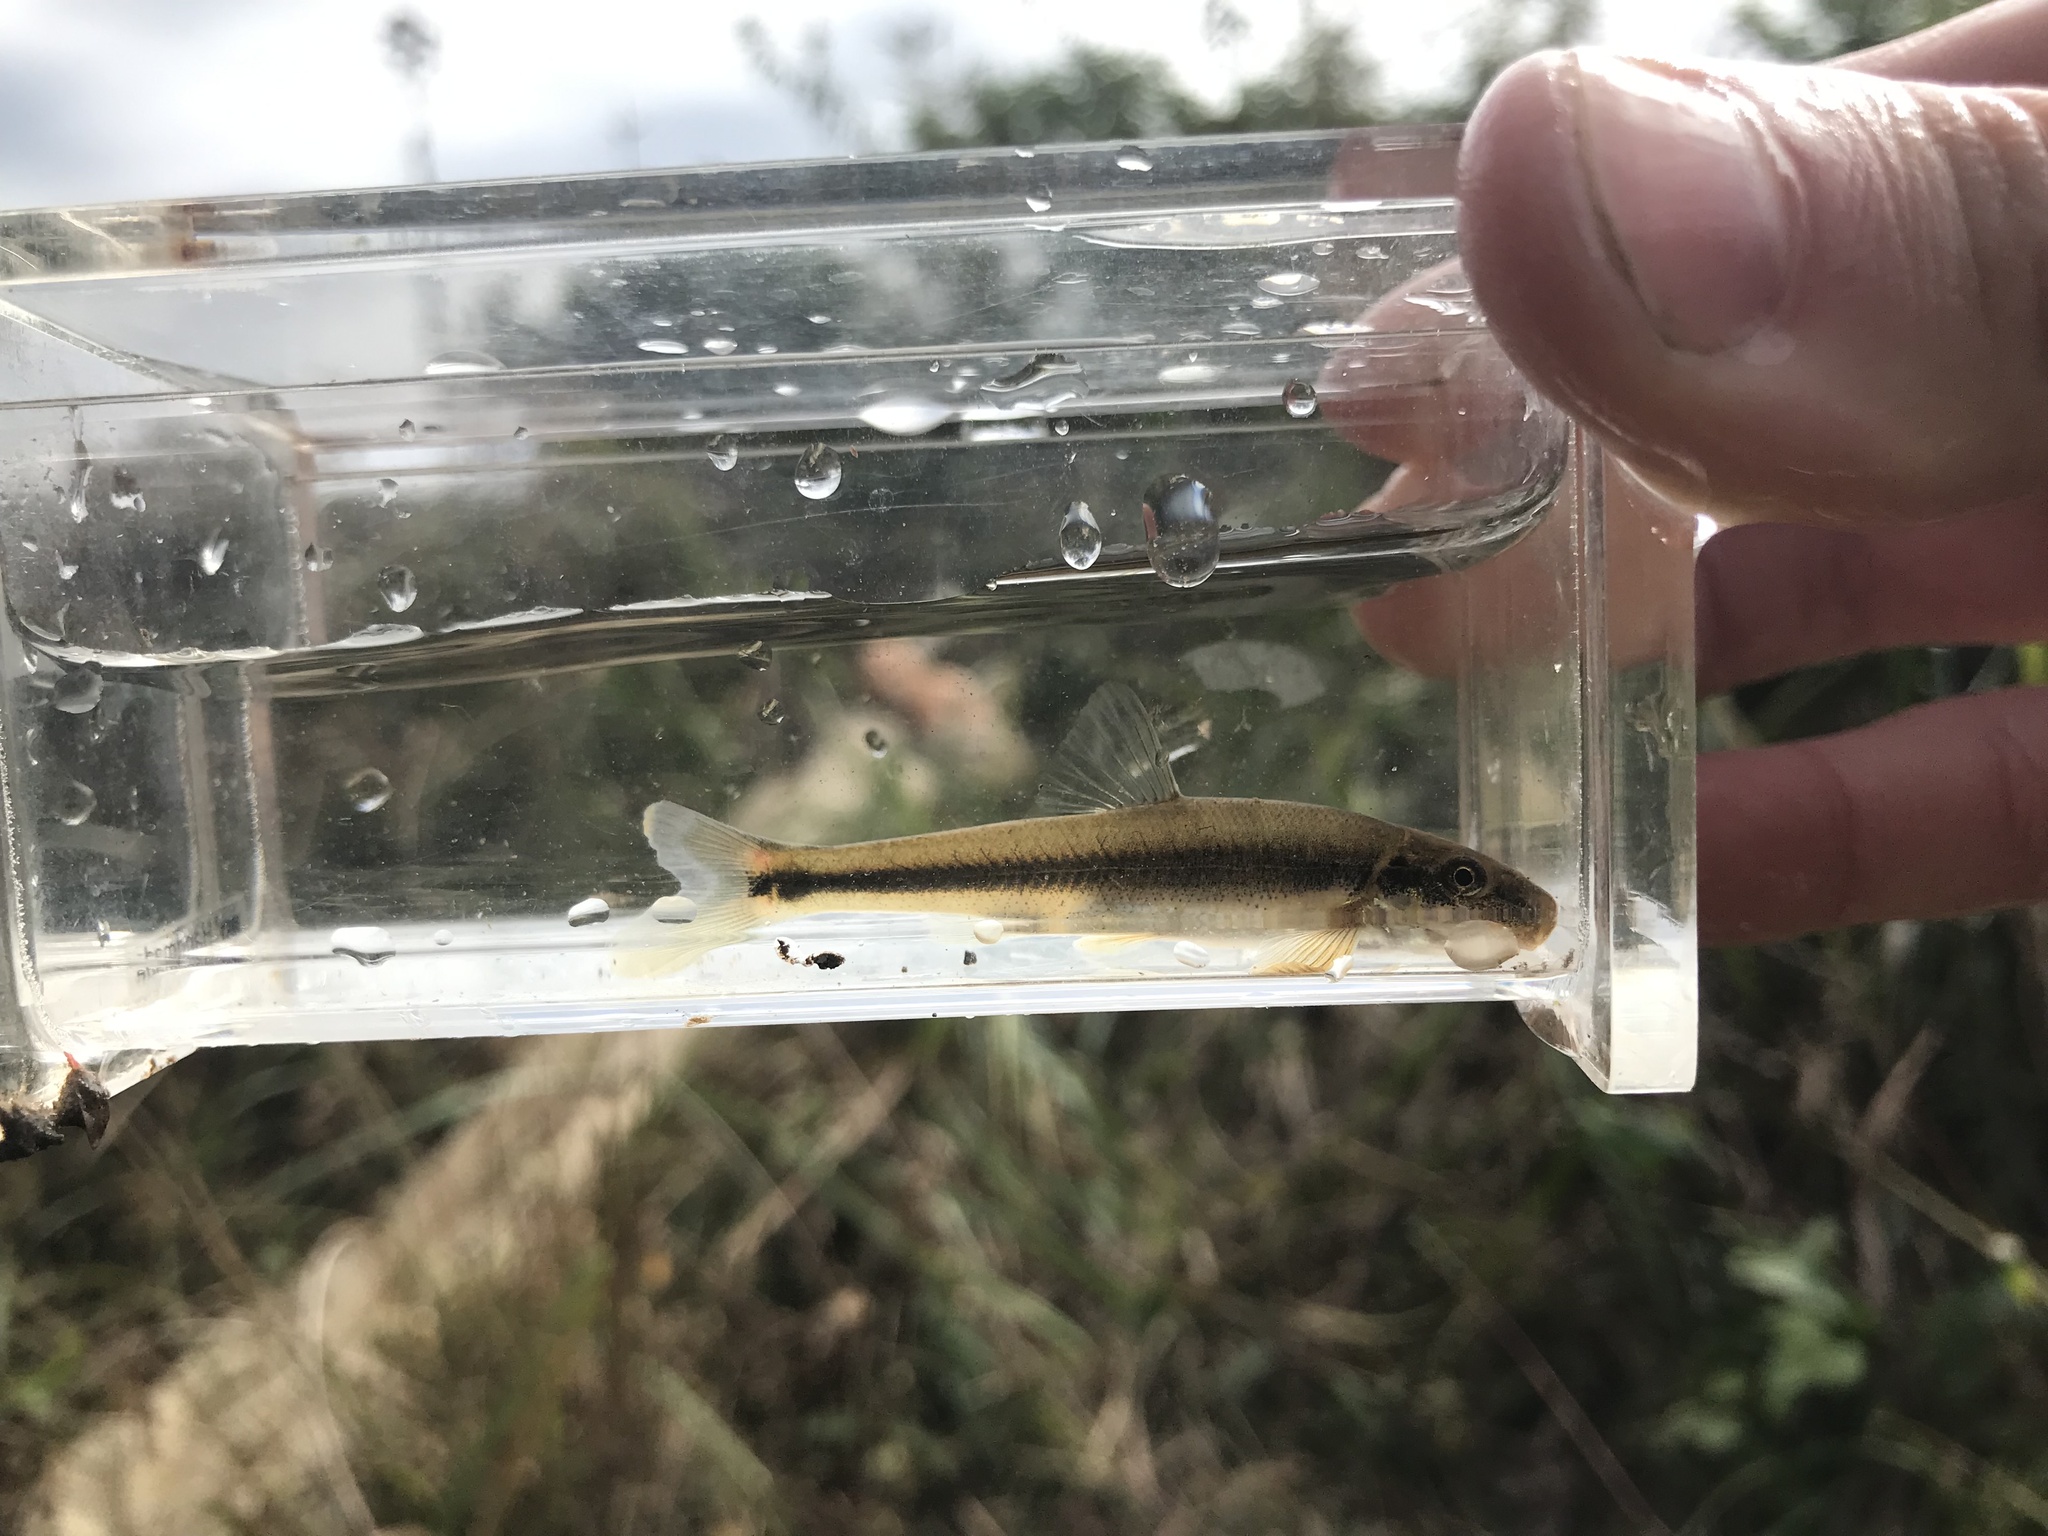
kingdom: Animalia
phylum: Chordata
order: Cypriniformes
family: Cyprinidae
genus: Phenacobius
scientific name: Phenacobius crassilabrum
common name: Fatlips minnow
